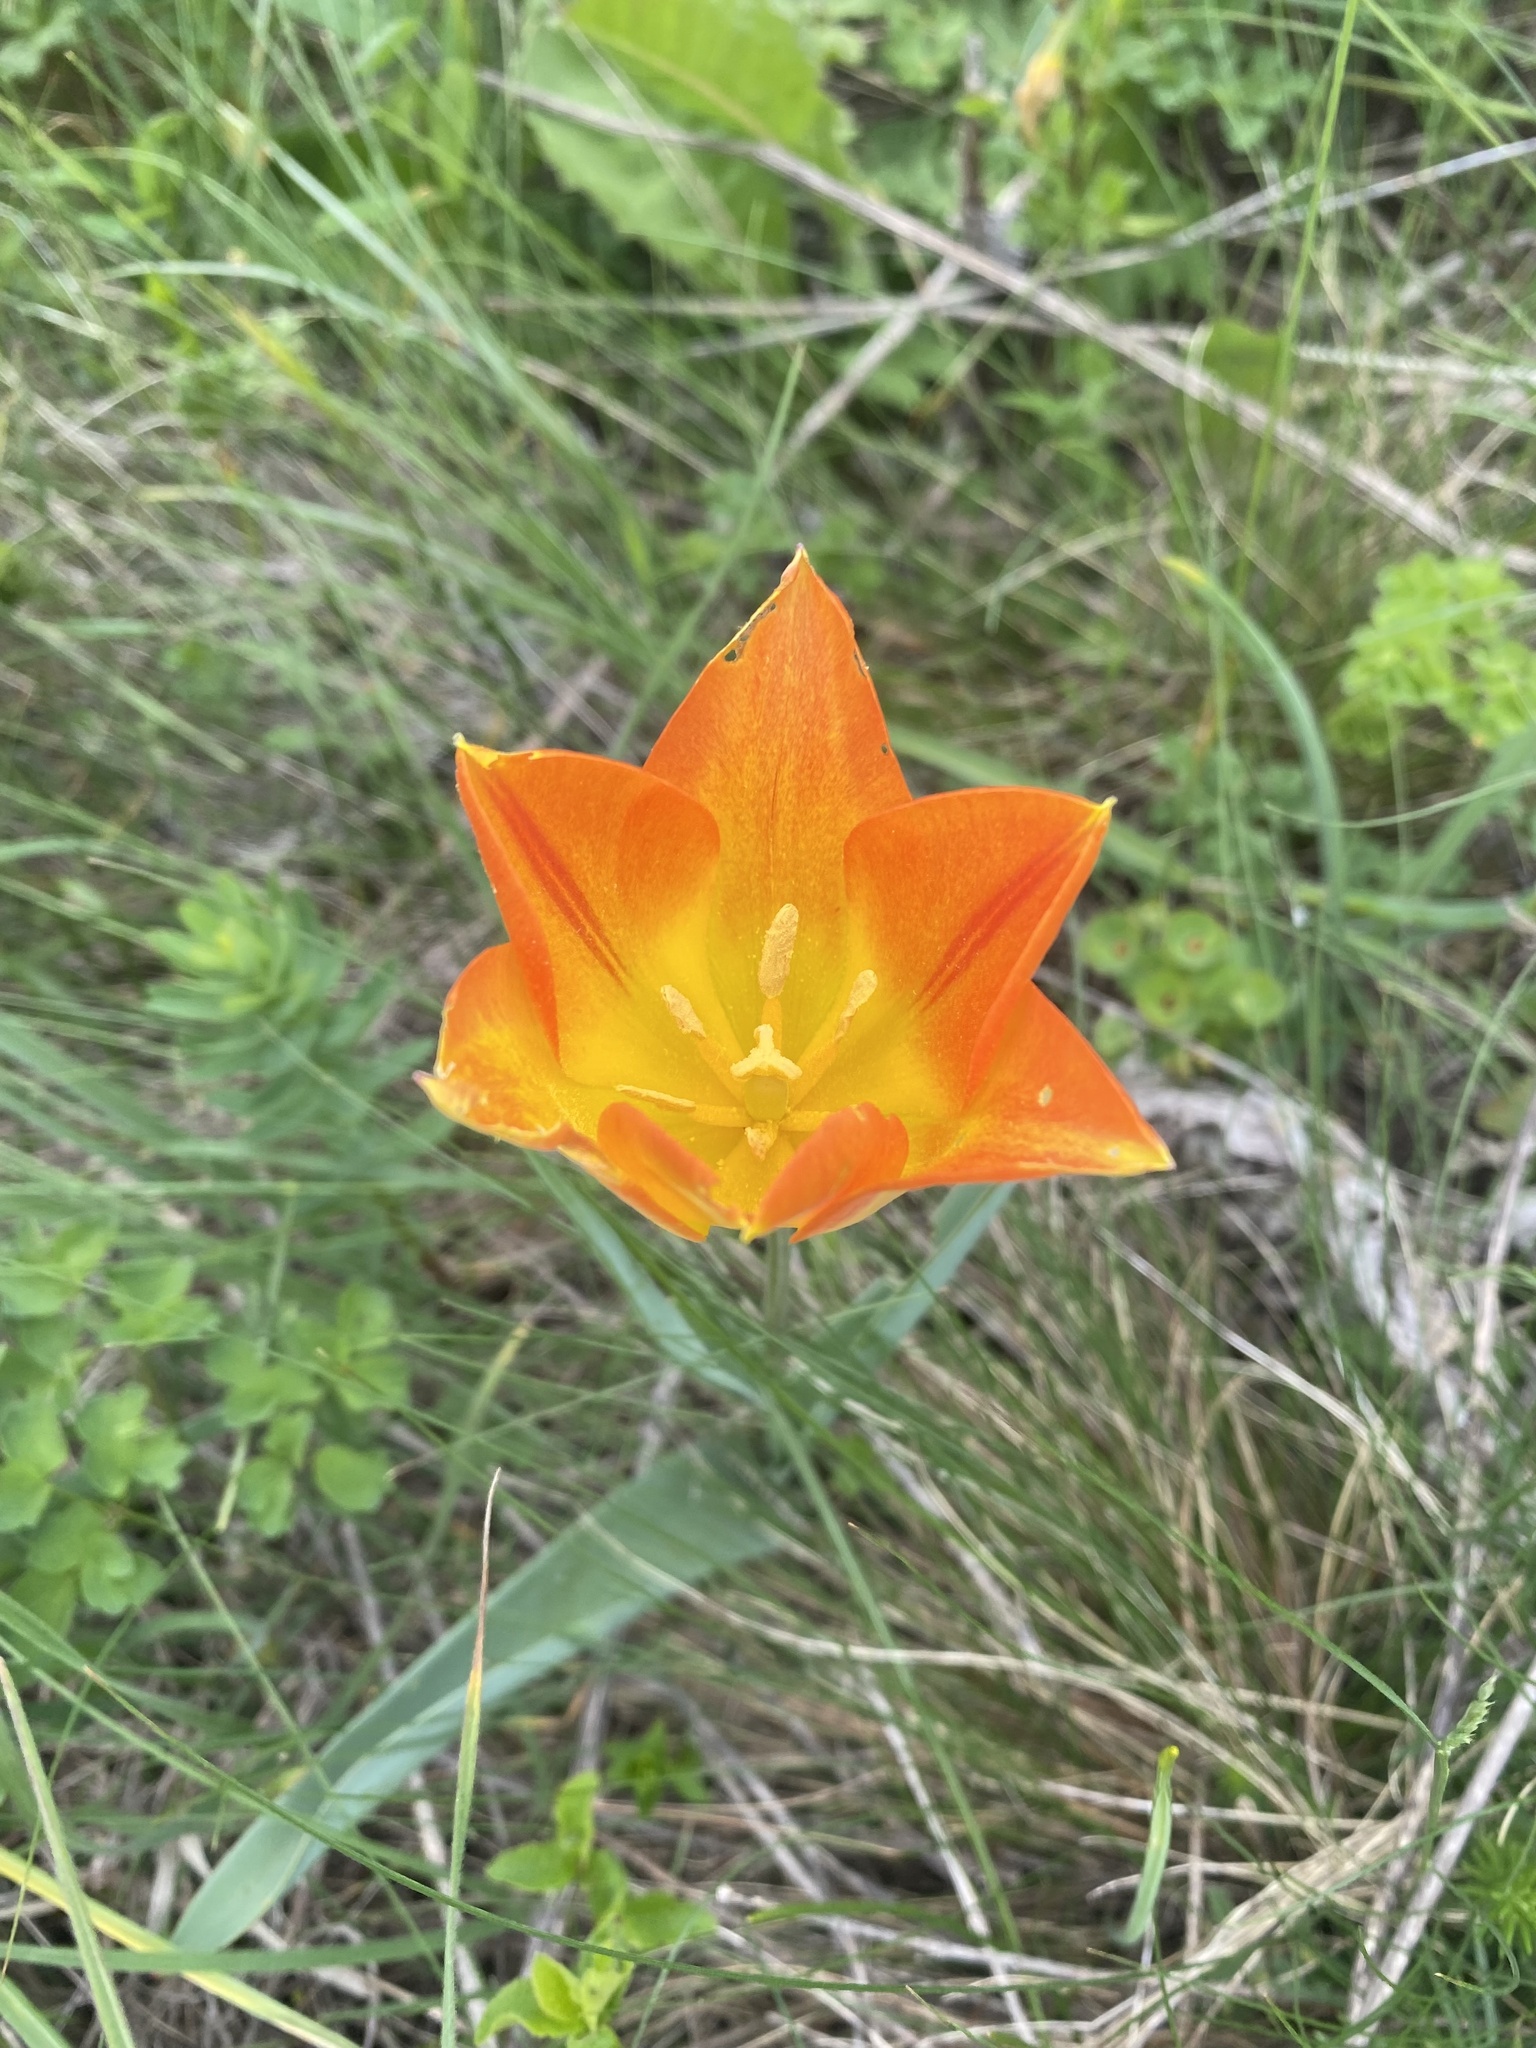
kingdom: Plantae
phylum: Tracheophyta
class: Liliopsida
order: Liliales
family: Liliaceae
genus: Tulipa
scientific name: Tulipa suaveolens
